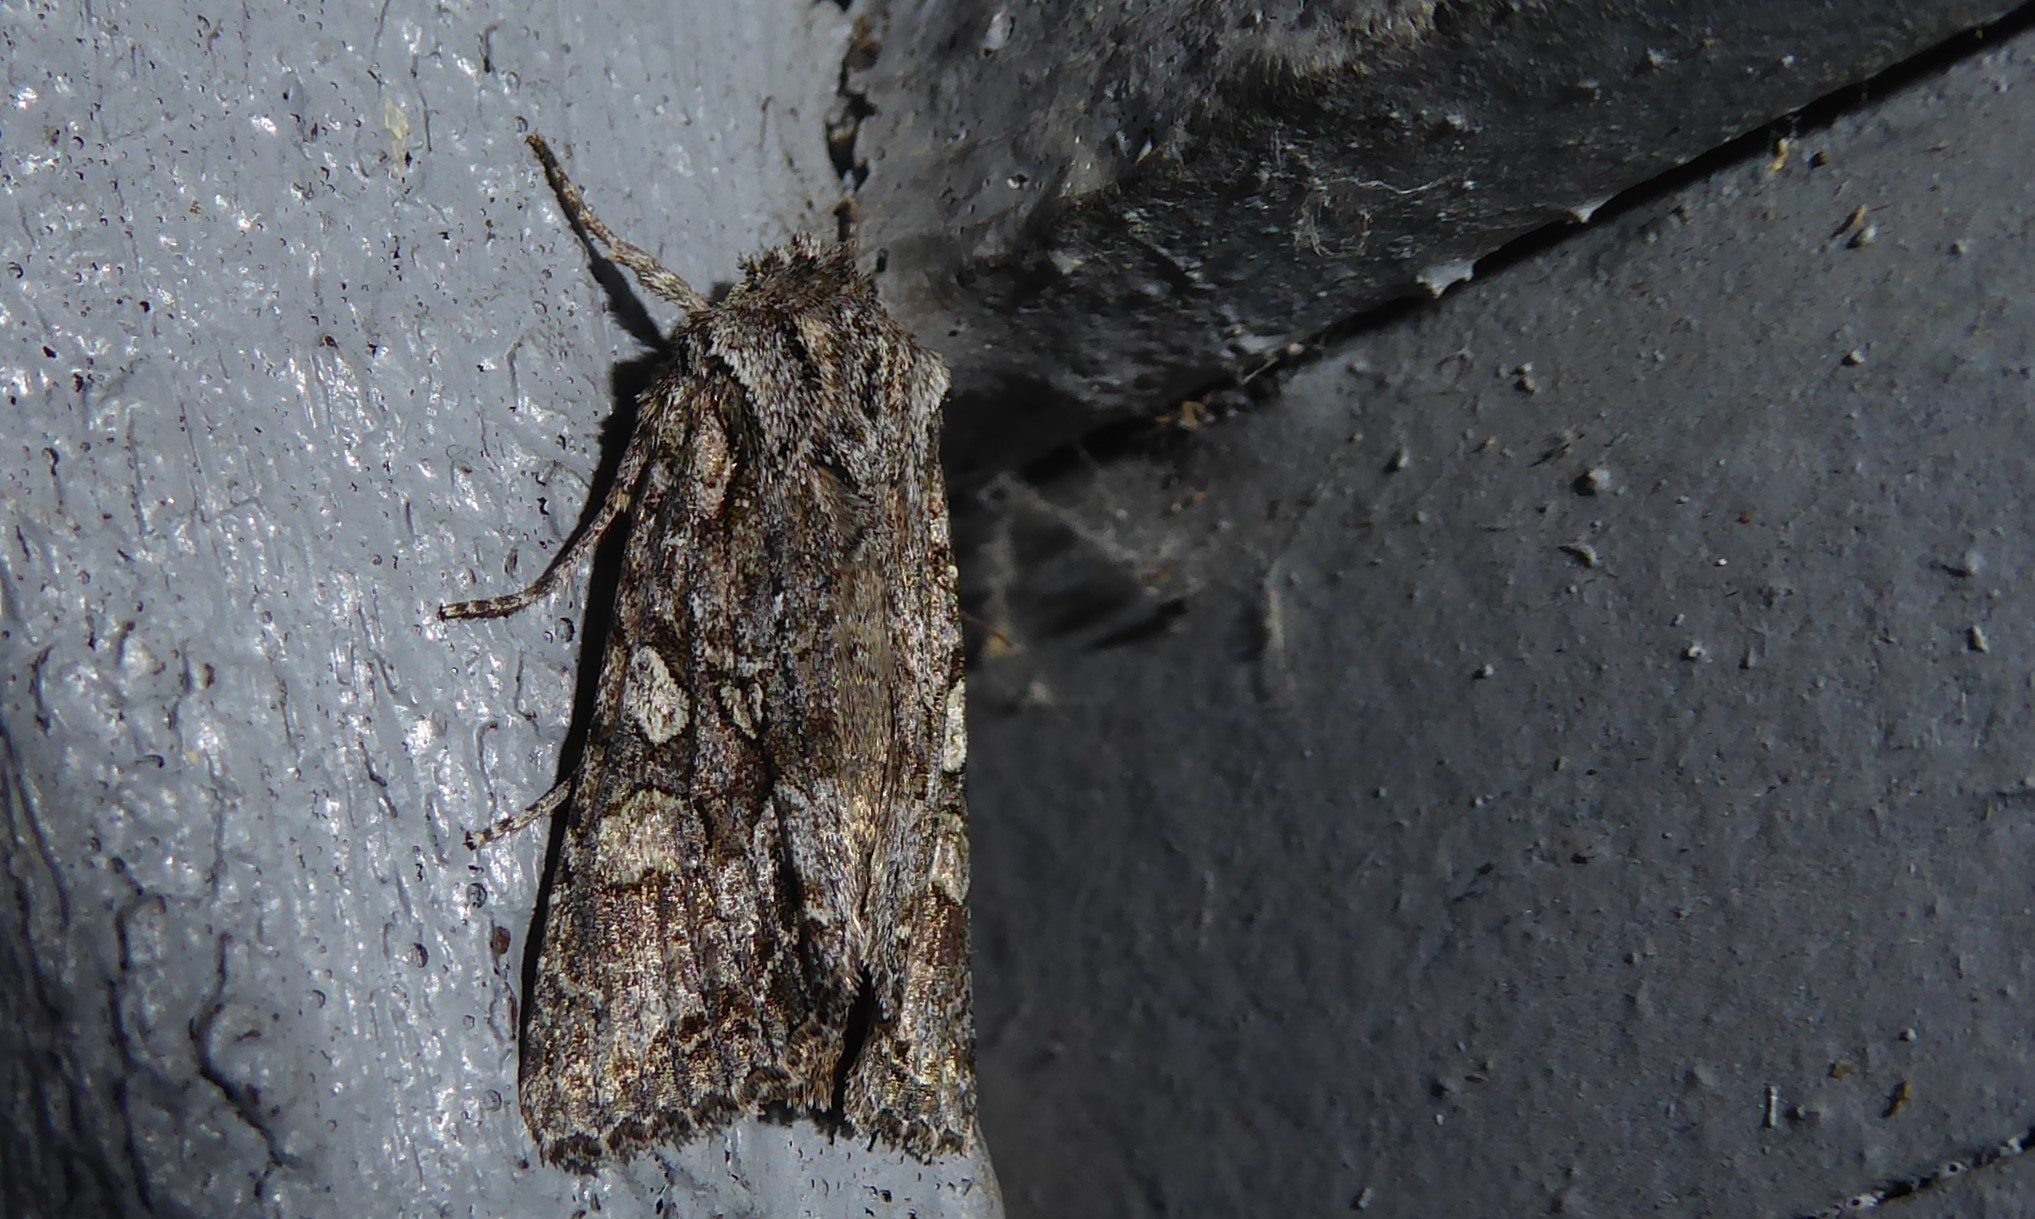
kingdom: Animalia
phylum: Arthropoda
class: Insecta
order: Lepidoptera
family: Noctuidae
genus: Ichneutica
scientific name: Ichneutica mutans
